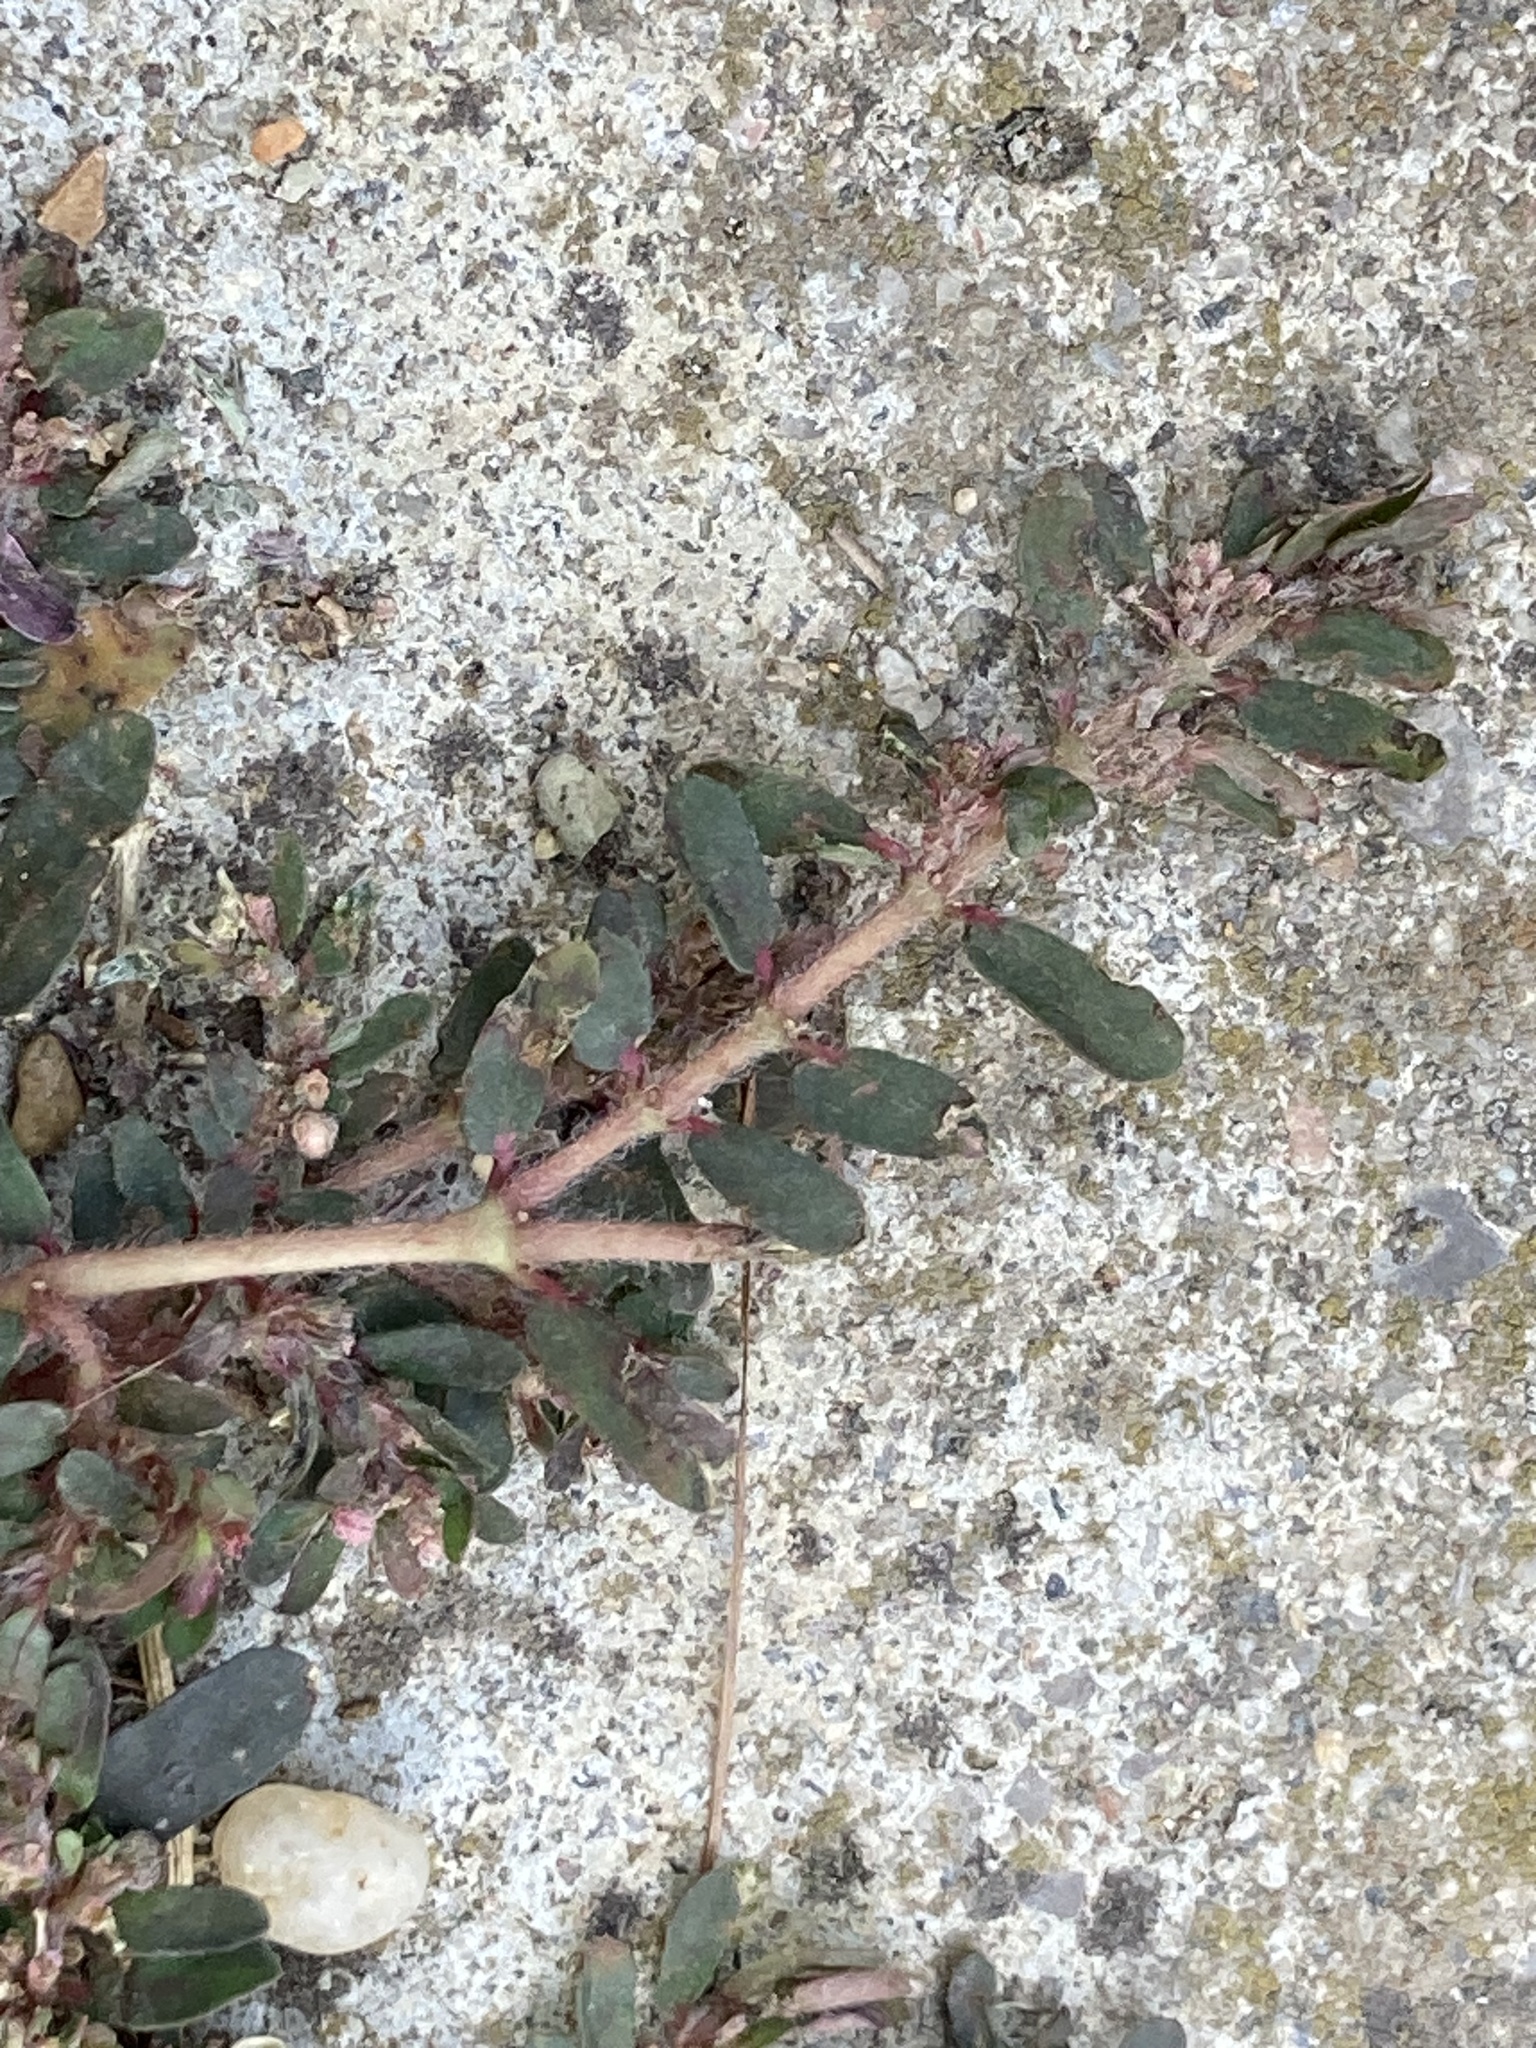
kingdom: Plantae
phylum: Tracheophyta
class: Magnoliopsida
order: Malpighiales
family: Euphorbiaceae
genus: Euphorbia
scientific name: Euphorbia maculata
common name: Spotted spurge
